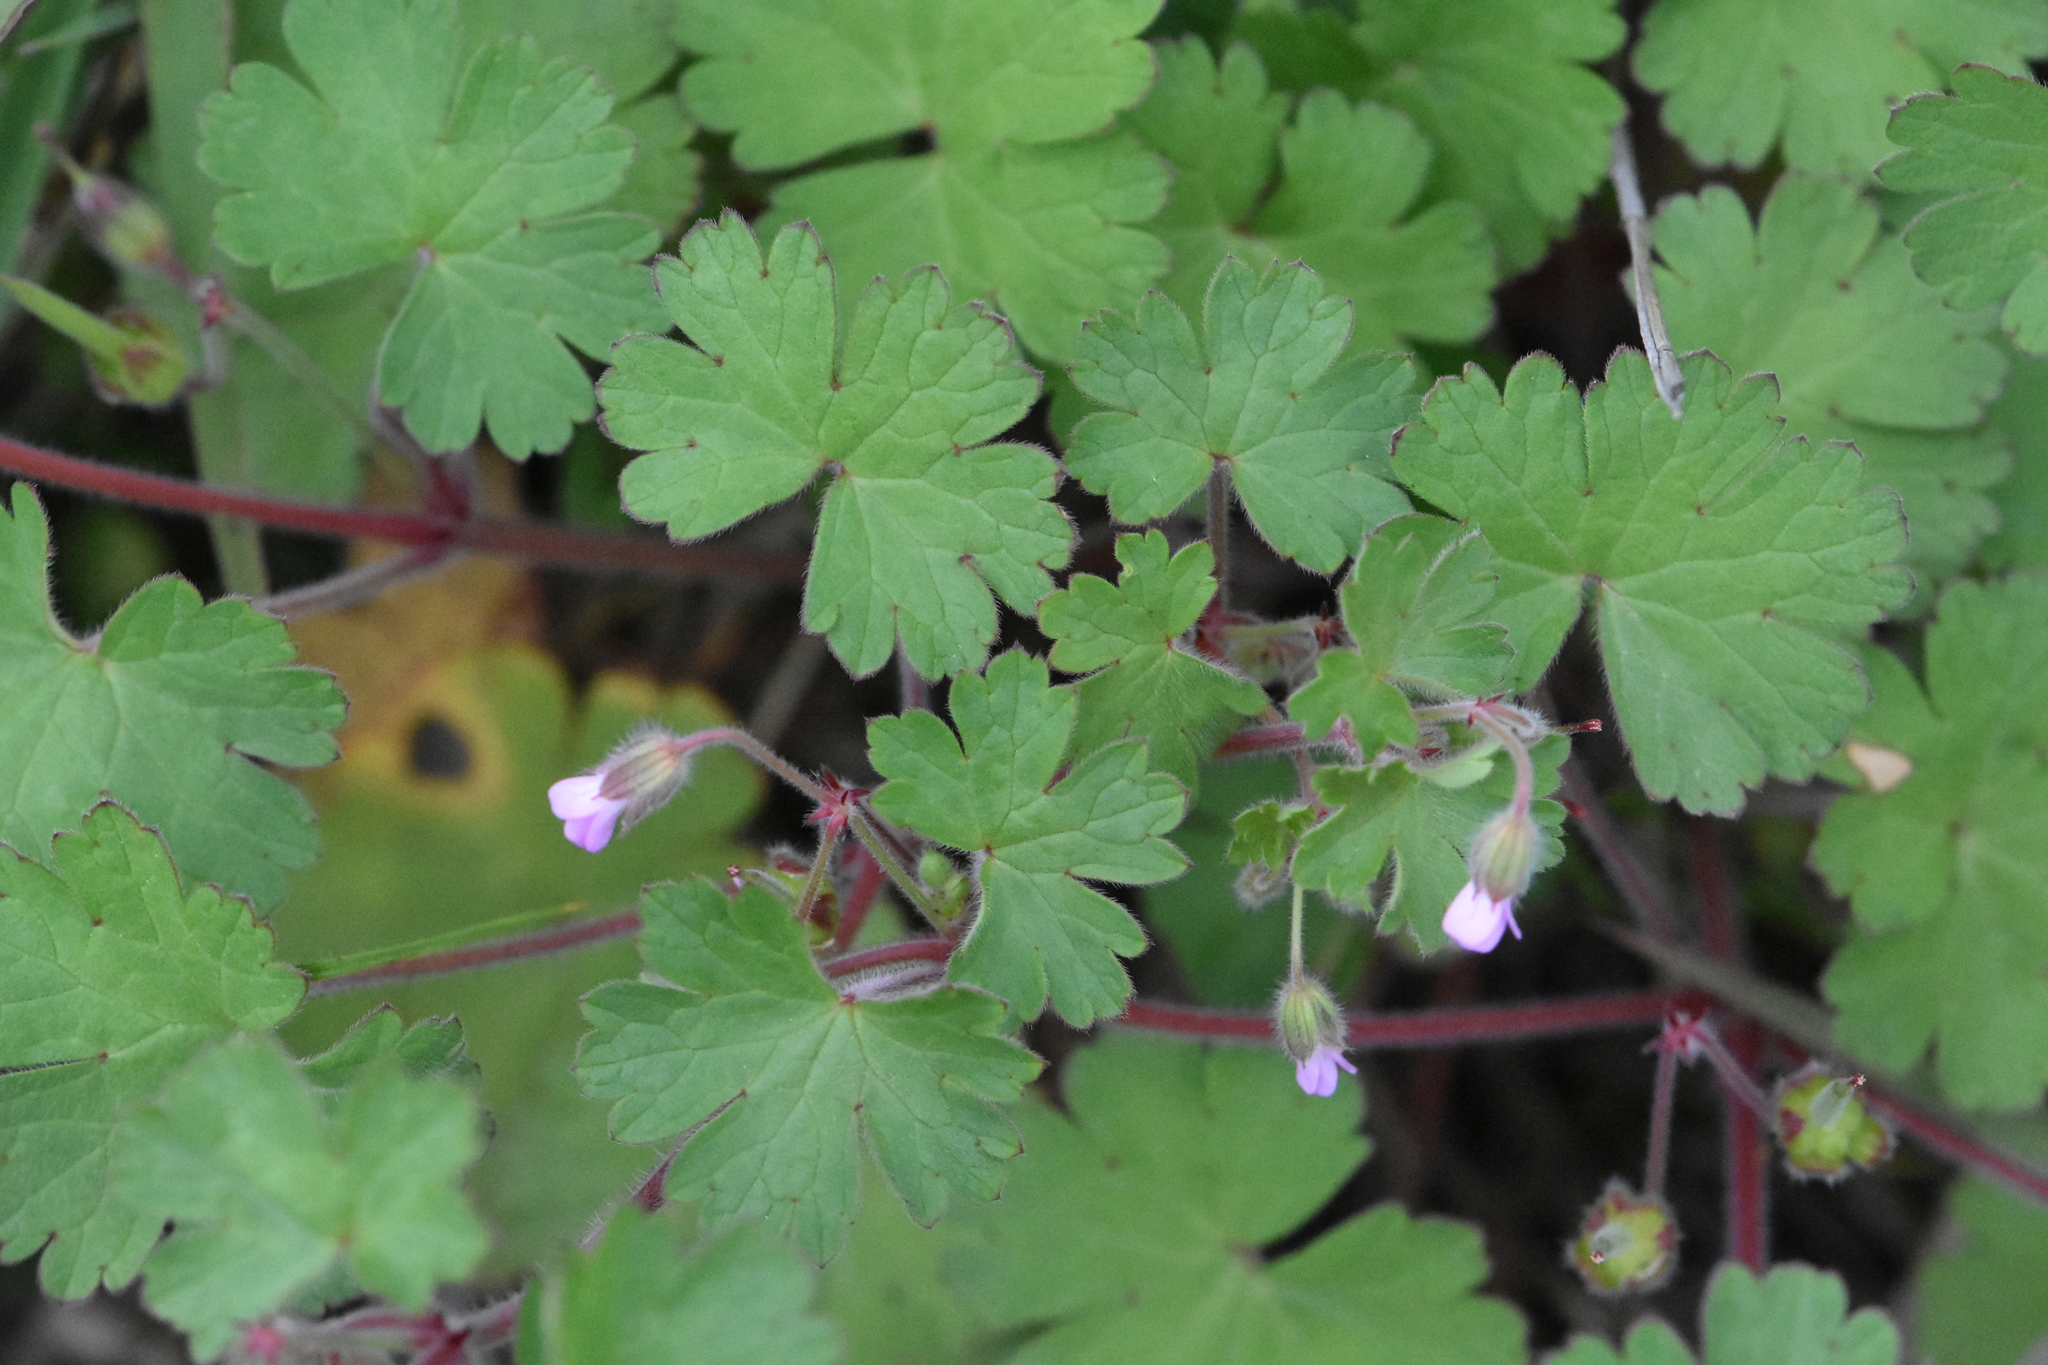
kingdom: Plantae
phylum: Tracheophyta
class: Magnoliopsida
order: Geraniales
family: Geraniaceae
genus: Geranium
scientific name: Geranium rotundifolium
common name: Round-leaved crane's-bill
